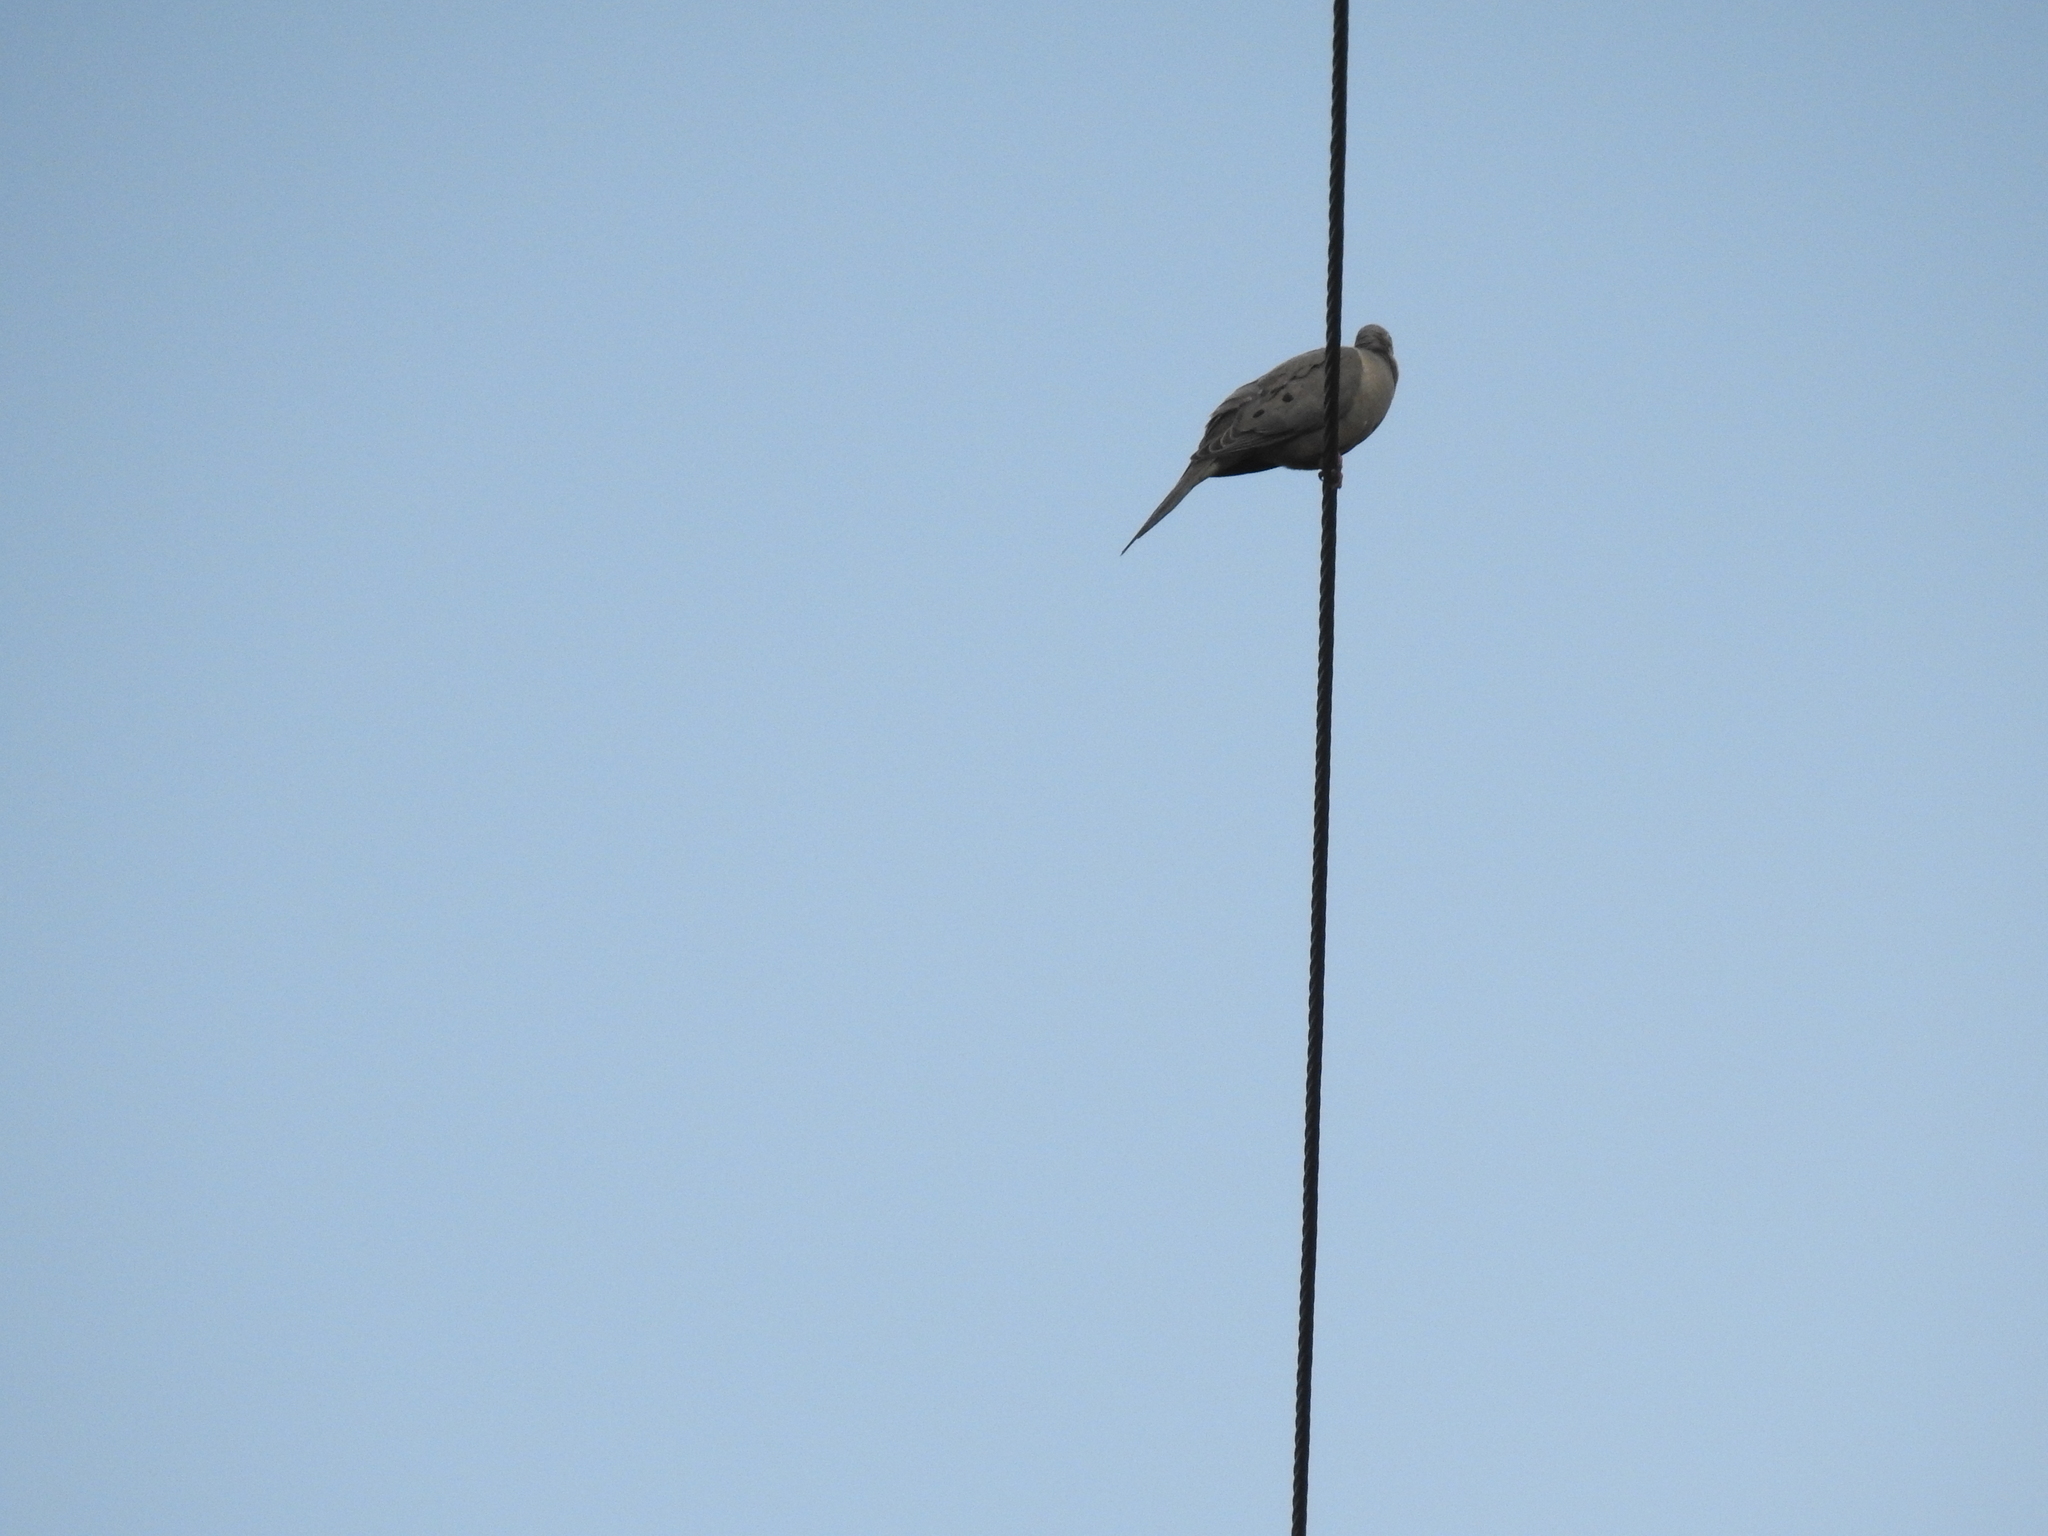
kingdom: Animalia
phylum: Chordata
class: Aves
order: Columbiformes
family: Columbidae
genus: Zenaida
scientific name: Zenaida macroura
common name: Mourning dove
